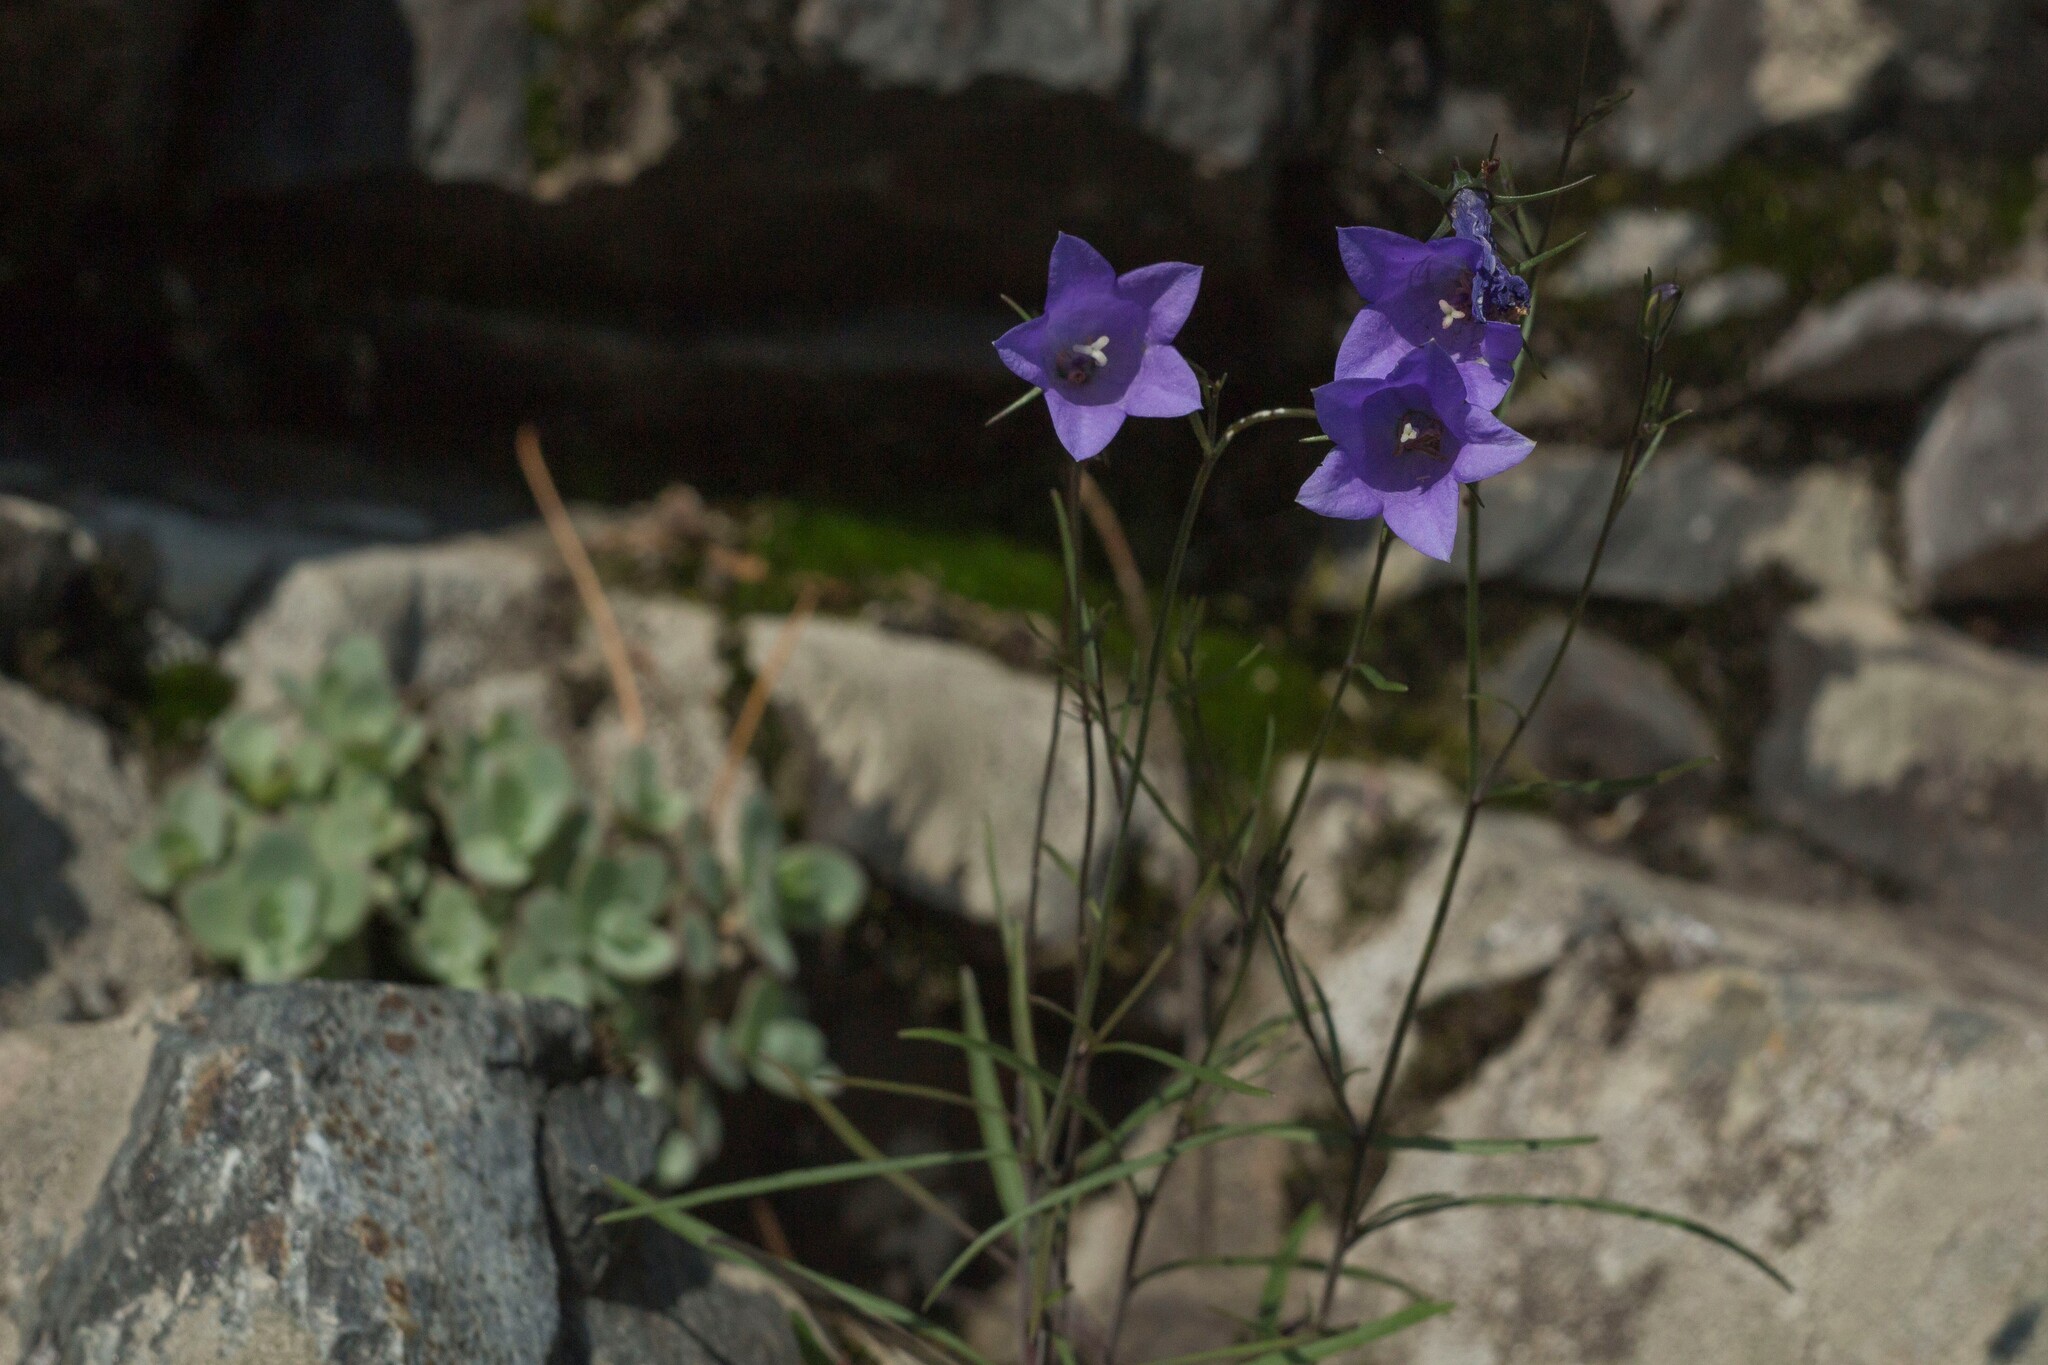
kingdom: Plantae
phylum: Tracheophyta
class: Magnoliopsida
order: Asterales
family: Campanulaceae
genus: Campanula
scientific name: Campanula rotundifolia
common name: Harebell
